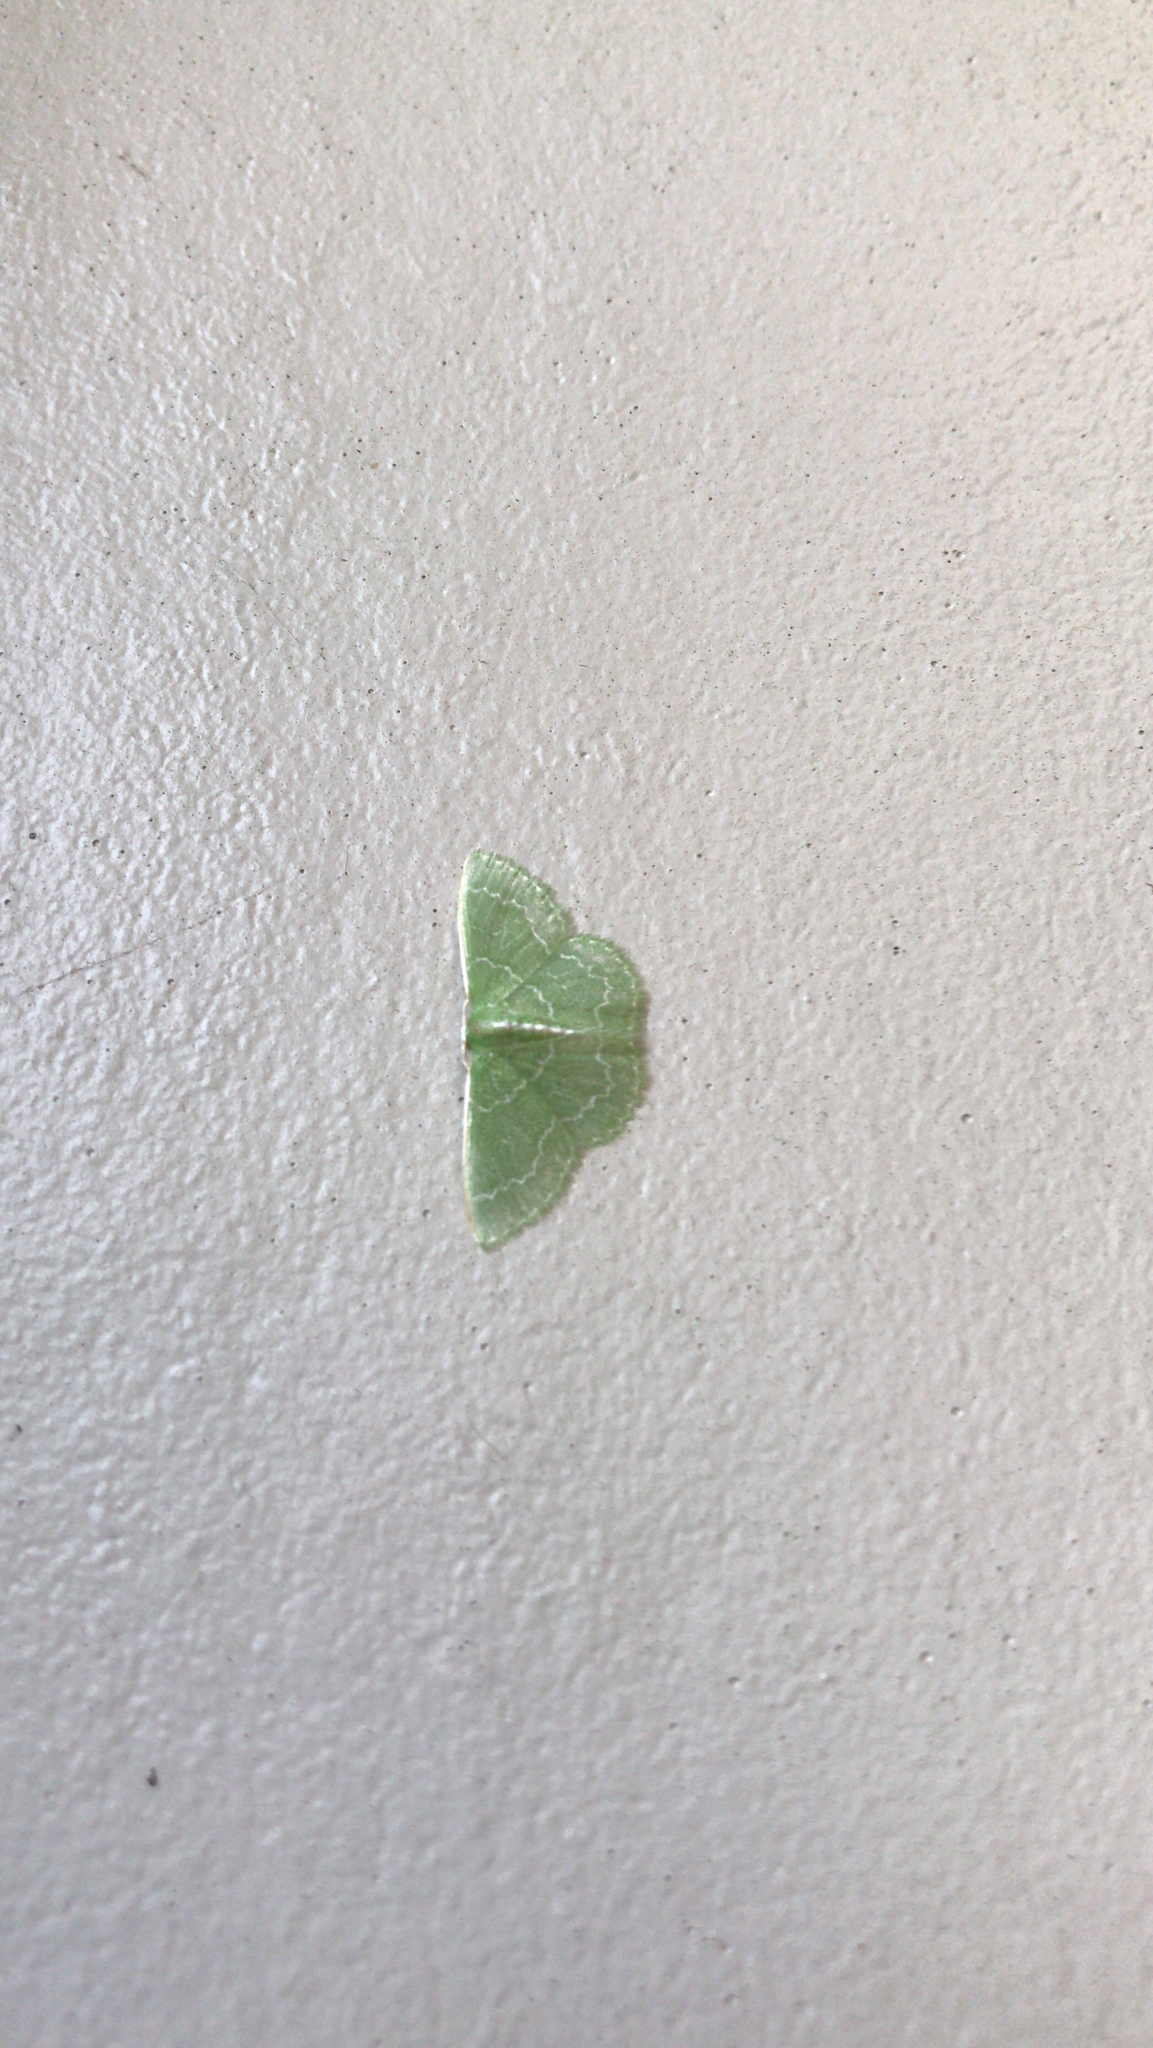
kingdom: Animalia
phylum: Arthropoda
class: Insecta
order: Lepidoptera
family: Geometridae
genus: Synchlora
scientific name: Synchlora frondaria
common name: Southern emerald
